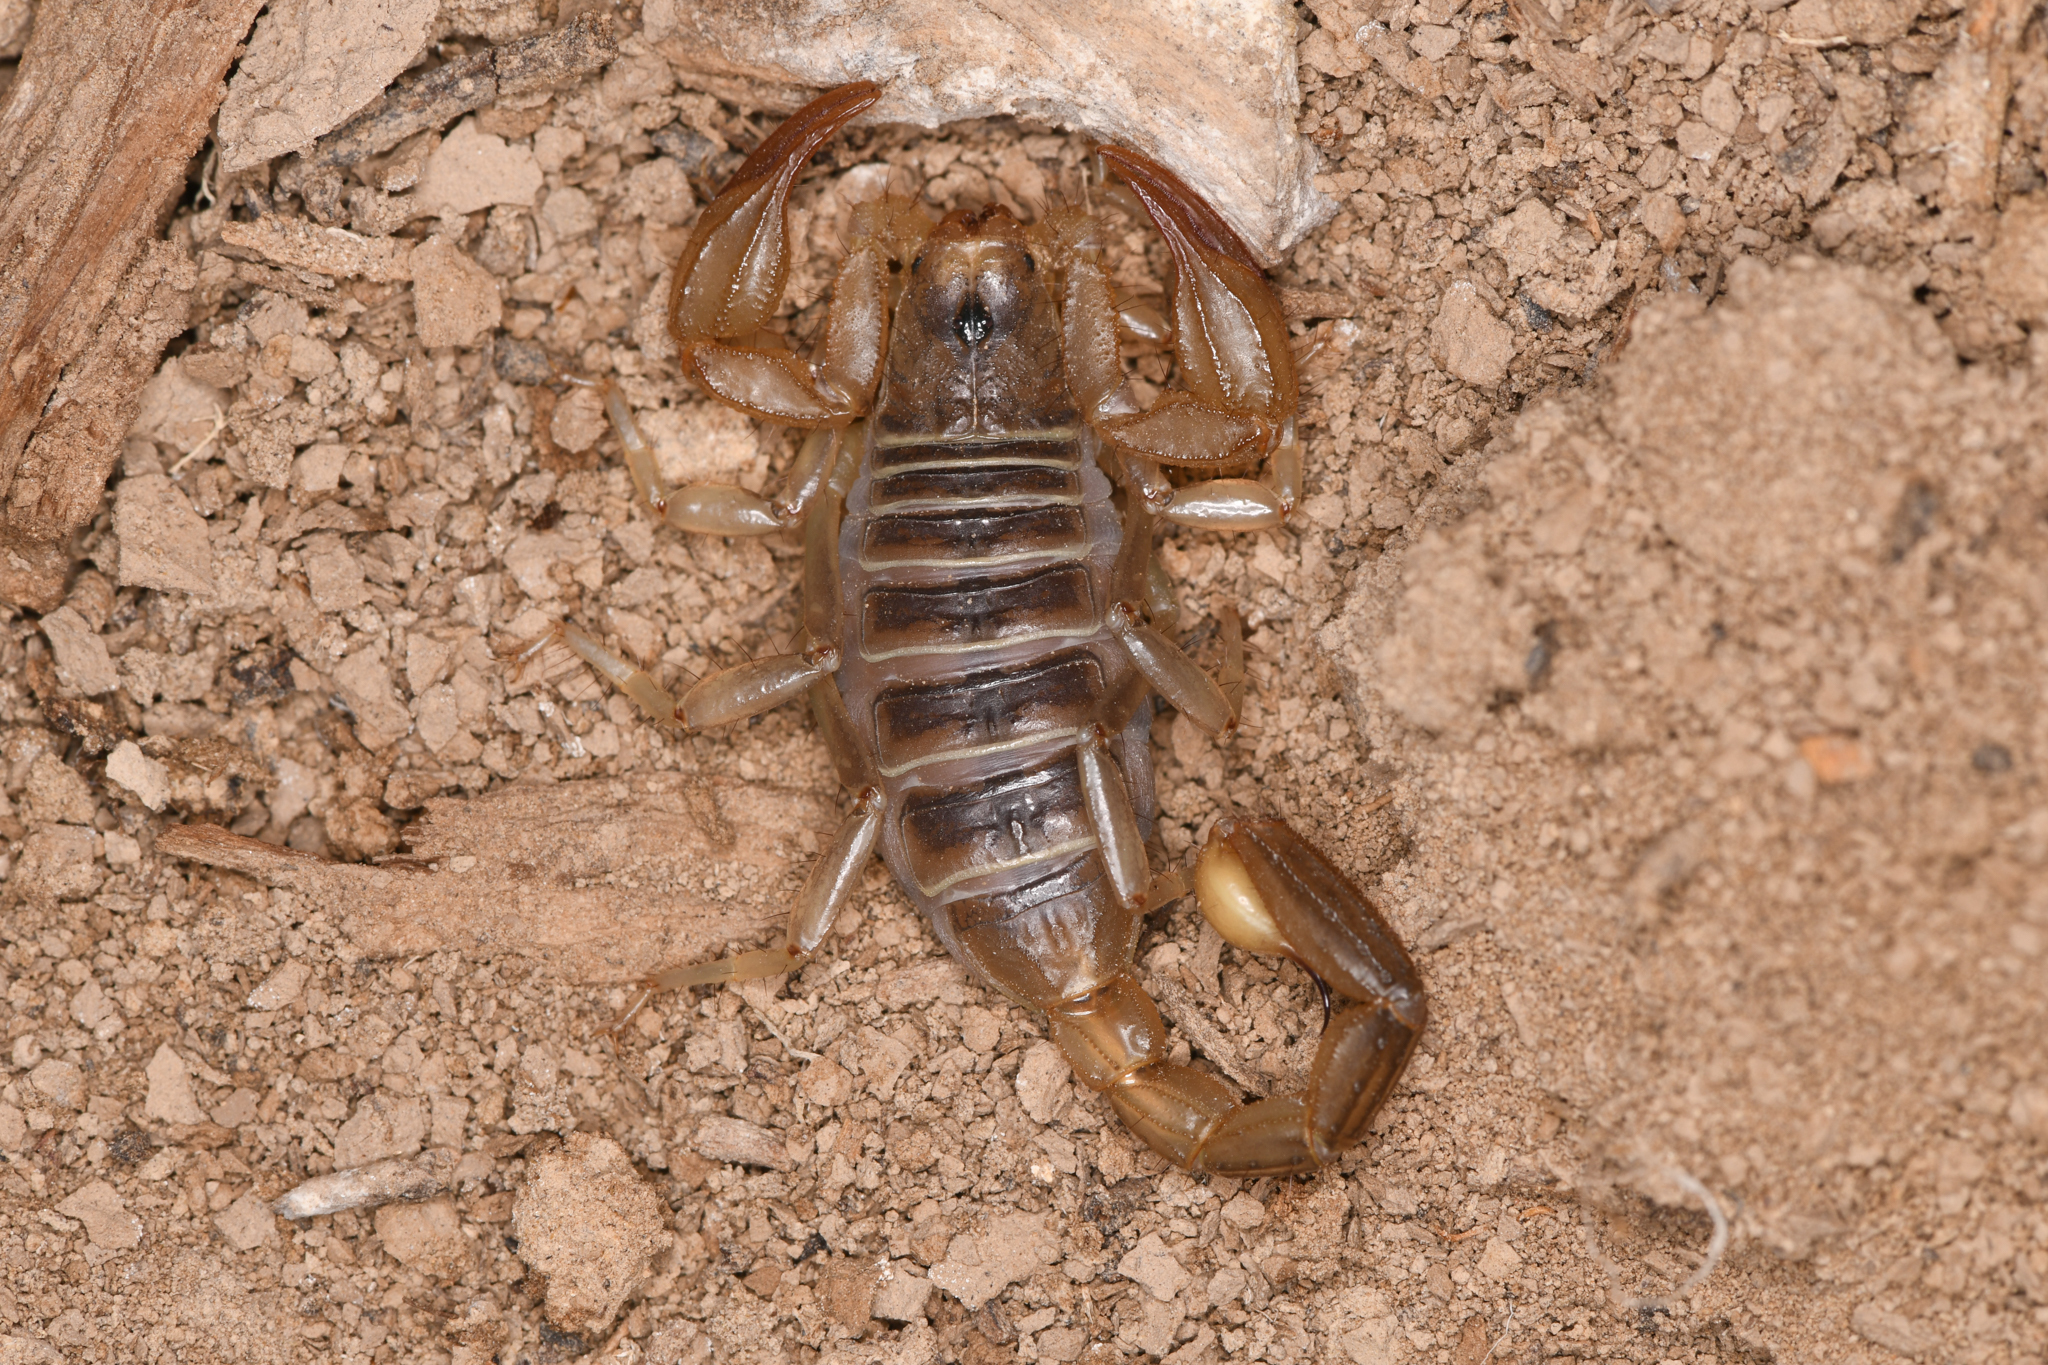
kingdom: Animalia
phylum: Arthropoda
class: Arachnida
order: Scorpiones
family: Vaejovidae
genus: Paruroctonus
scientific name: Paruroctonus boreus
